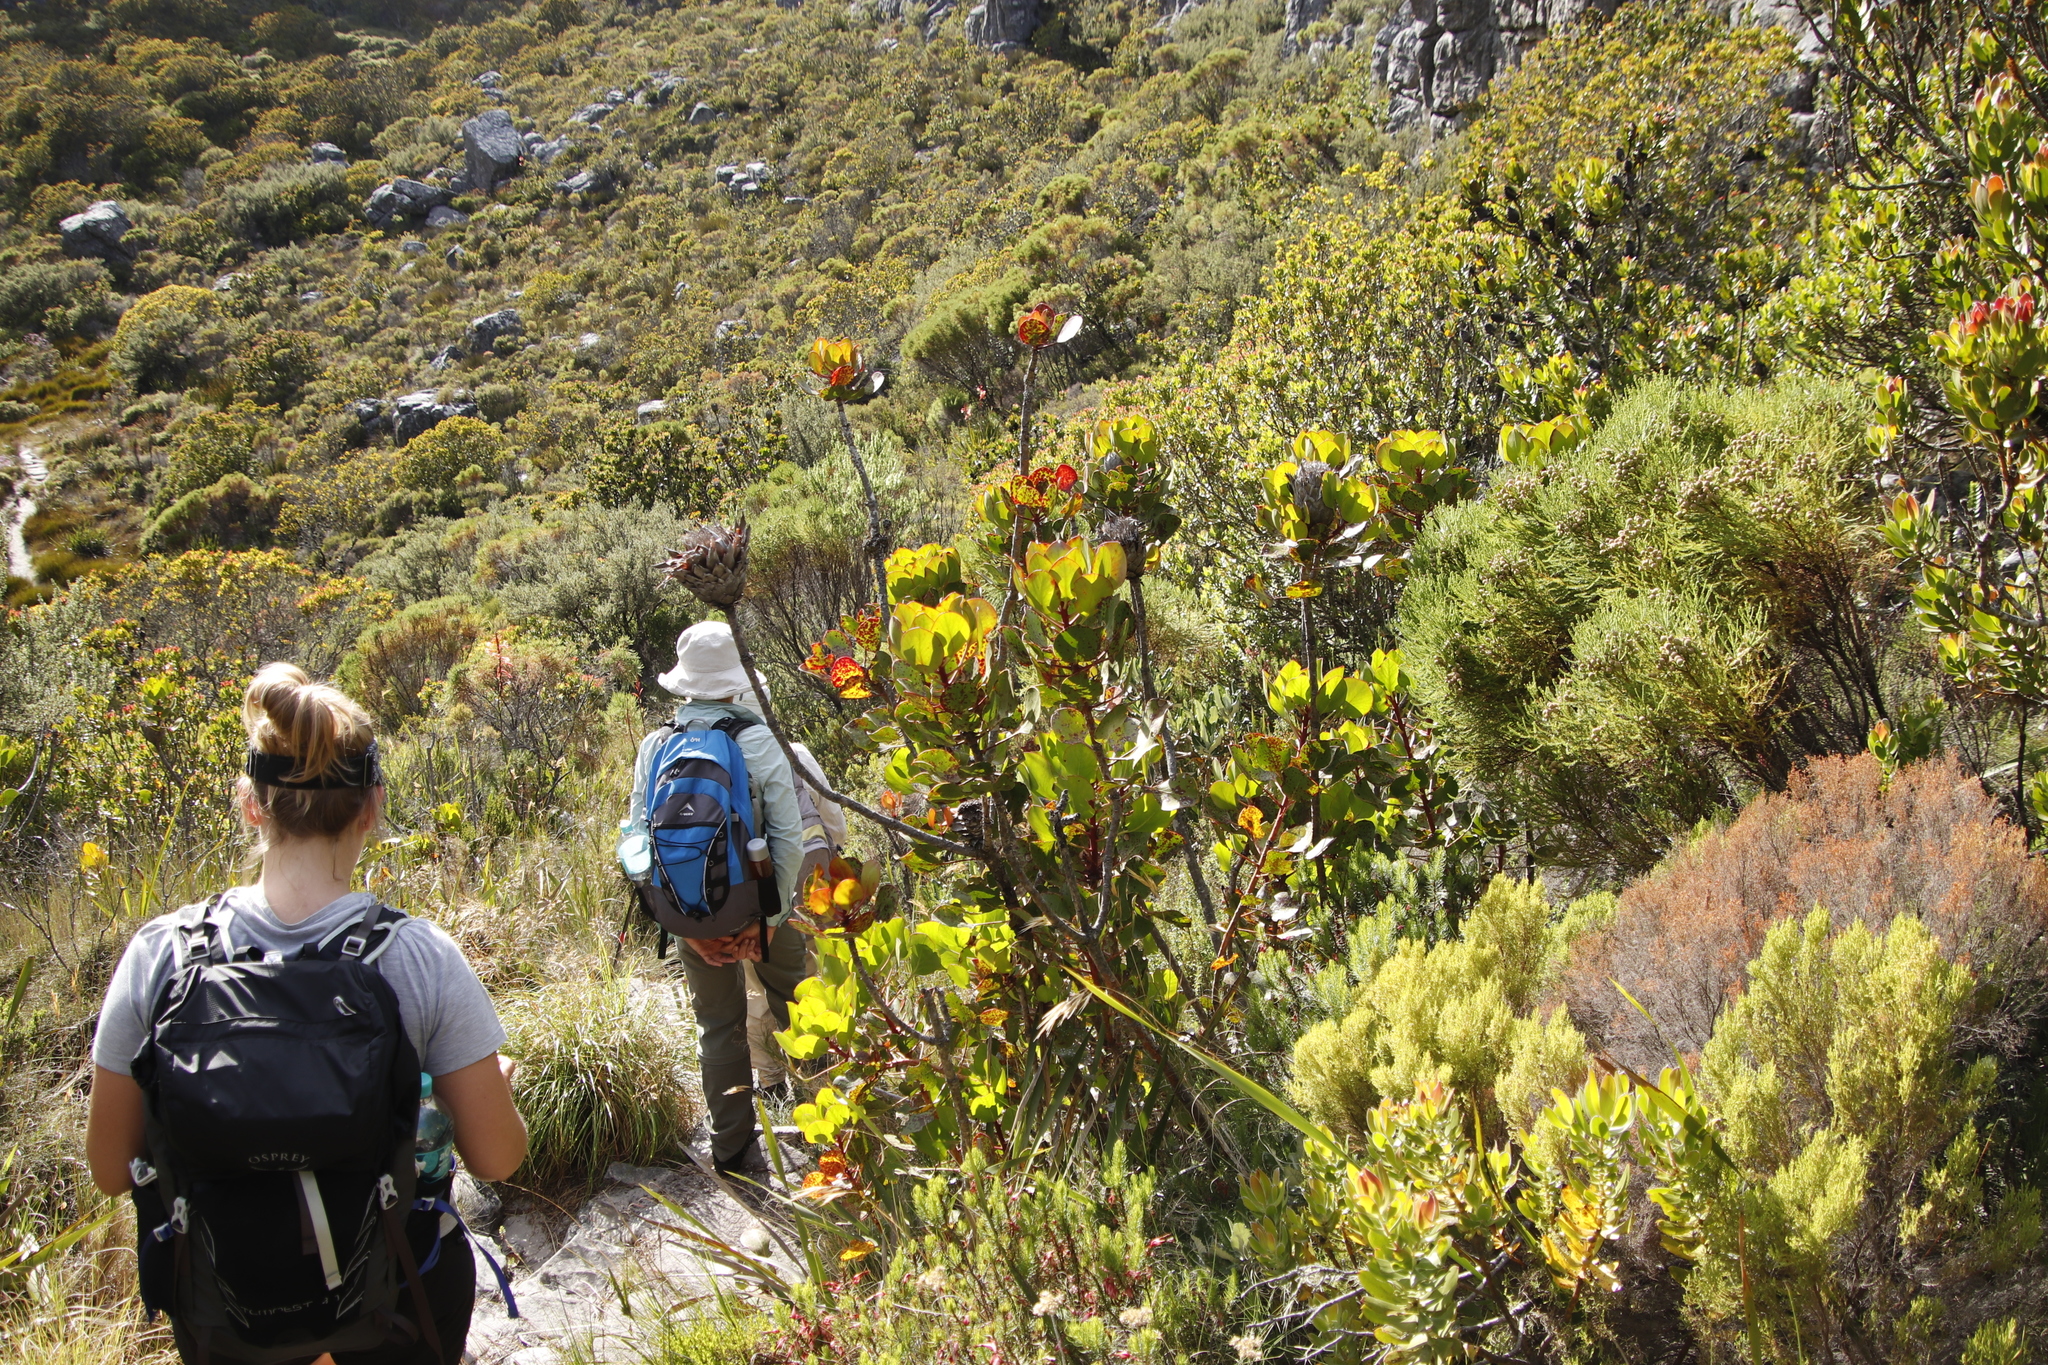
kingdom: Plantae
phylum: Tracheophyta
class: Magnoliopsida
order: Proteales
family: Proteaceae
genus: Protea
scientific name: Protea cynaroides
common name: King protea
